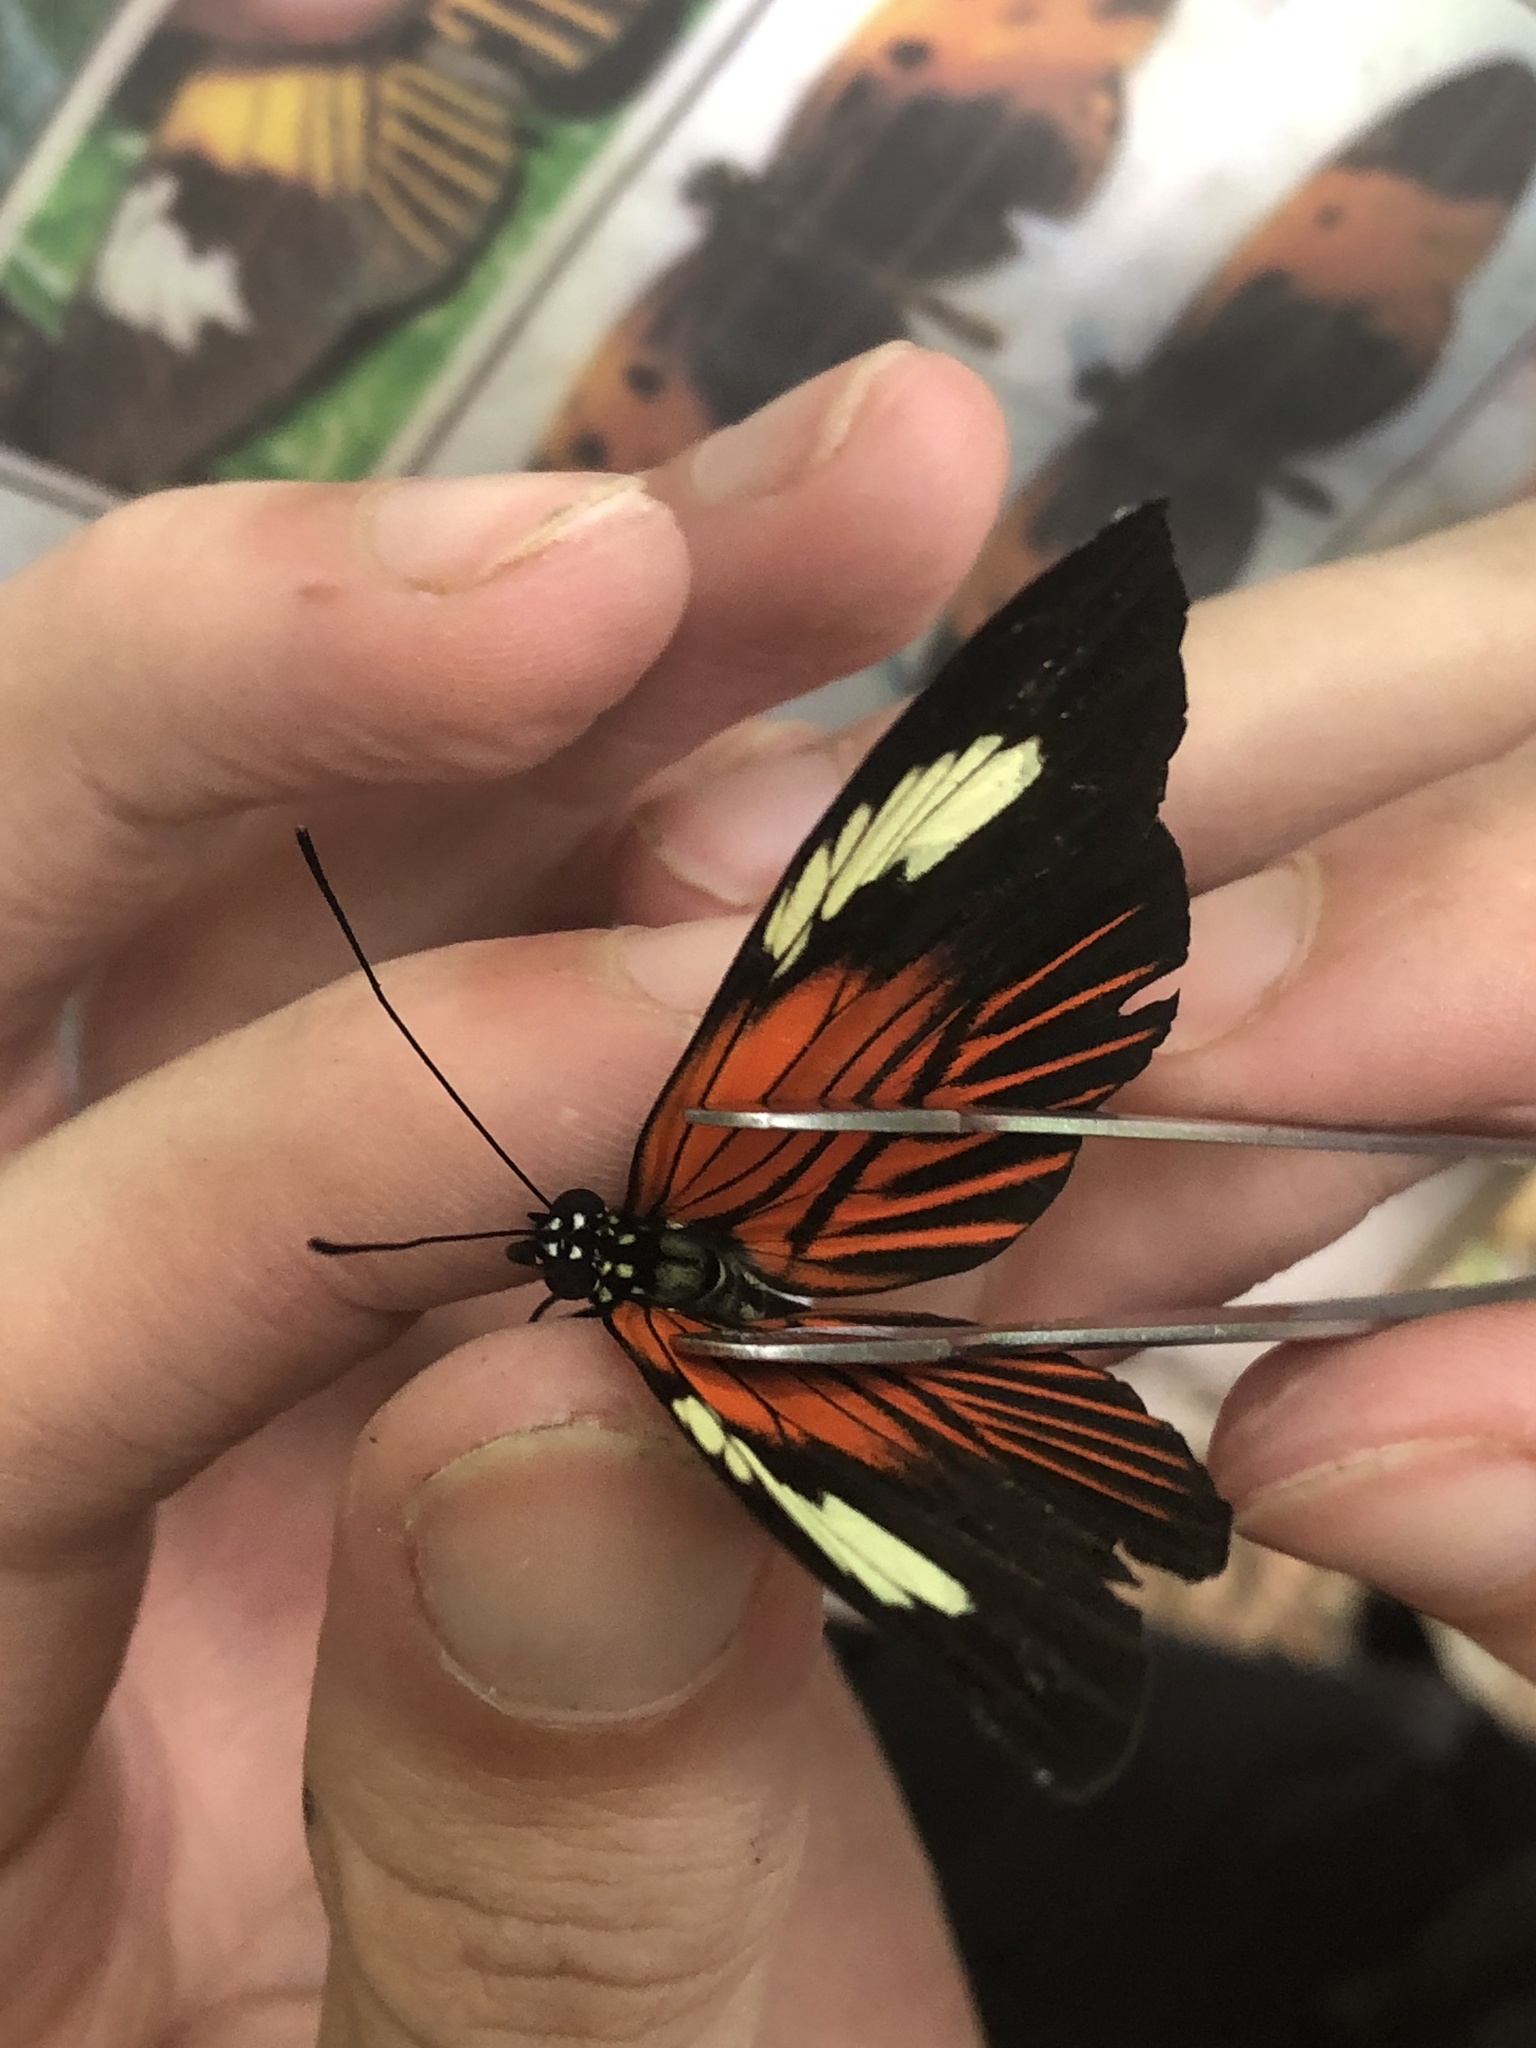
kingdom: Animalia
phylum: Arthropoda
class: Insecta
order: Lepidoptera
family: Nymphalidae
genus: Heliconius
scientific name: Heliconius melpomene
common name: Postman
